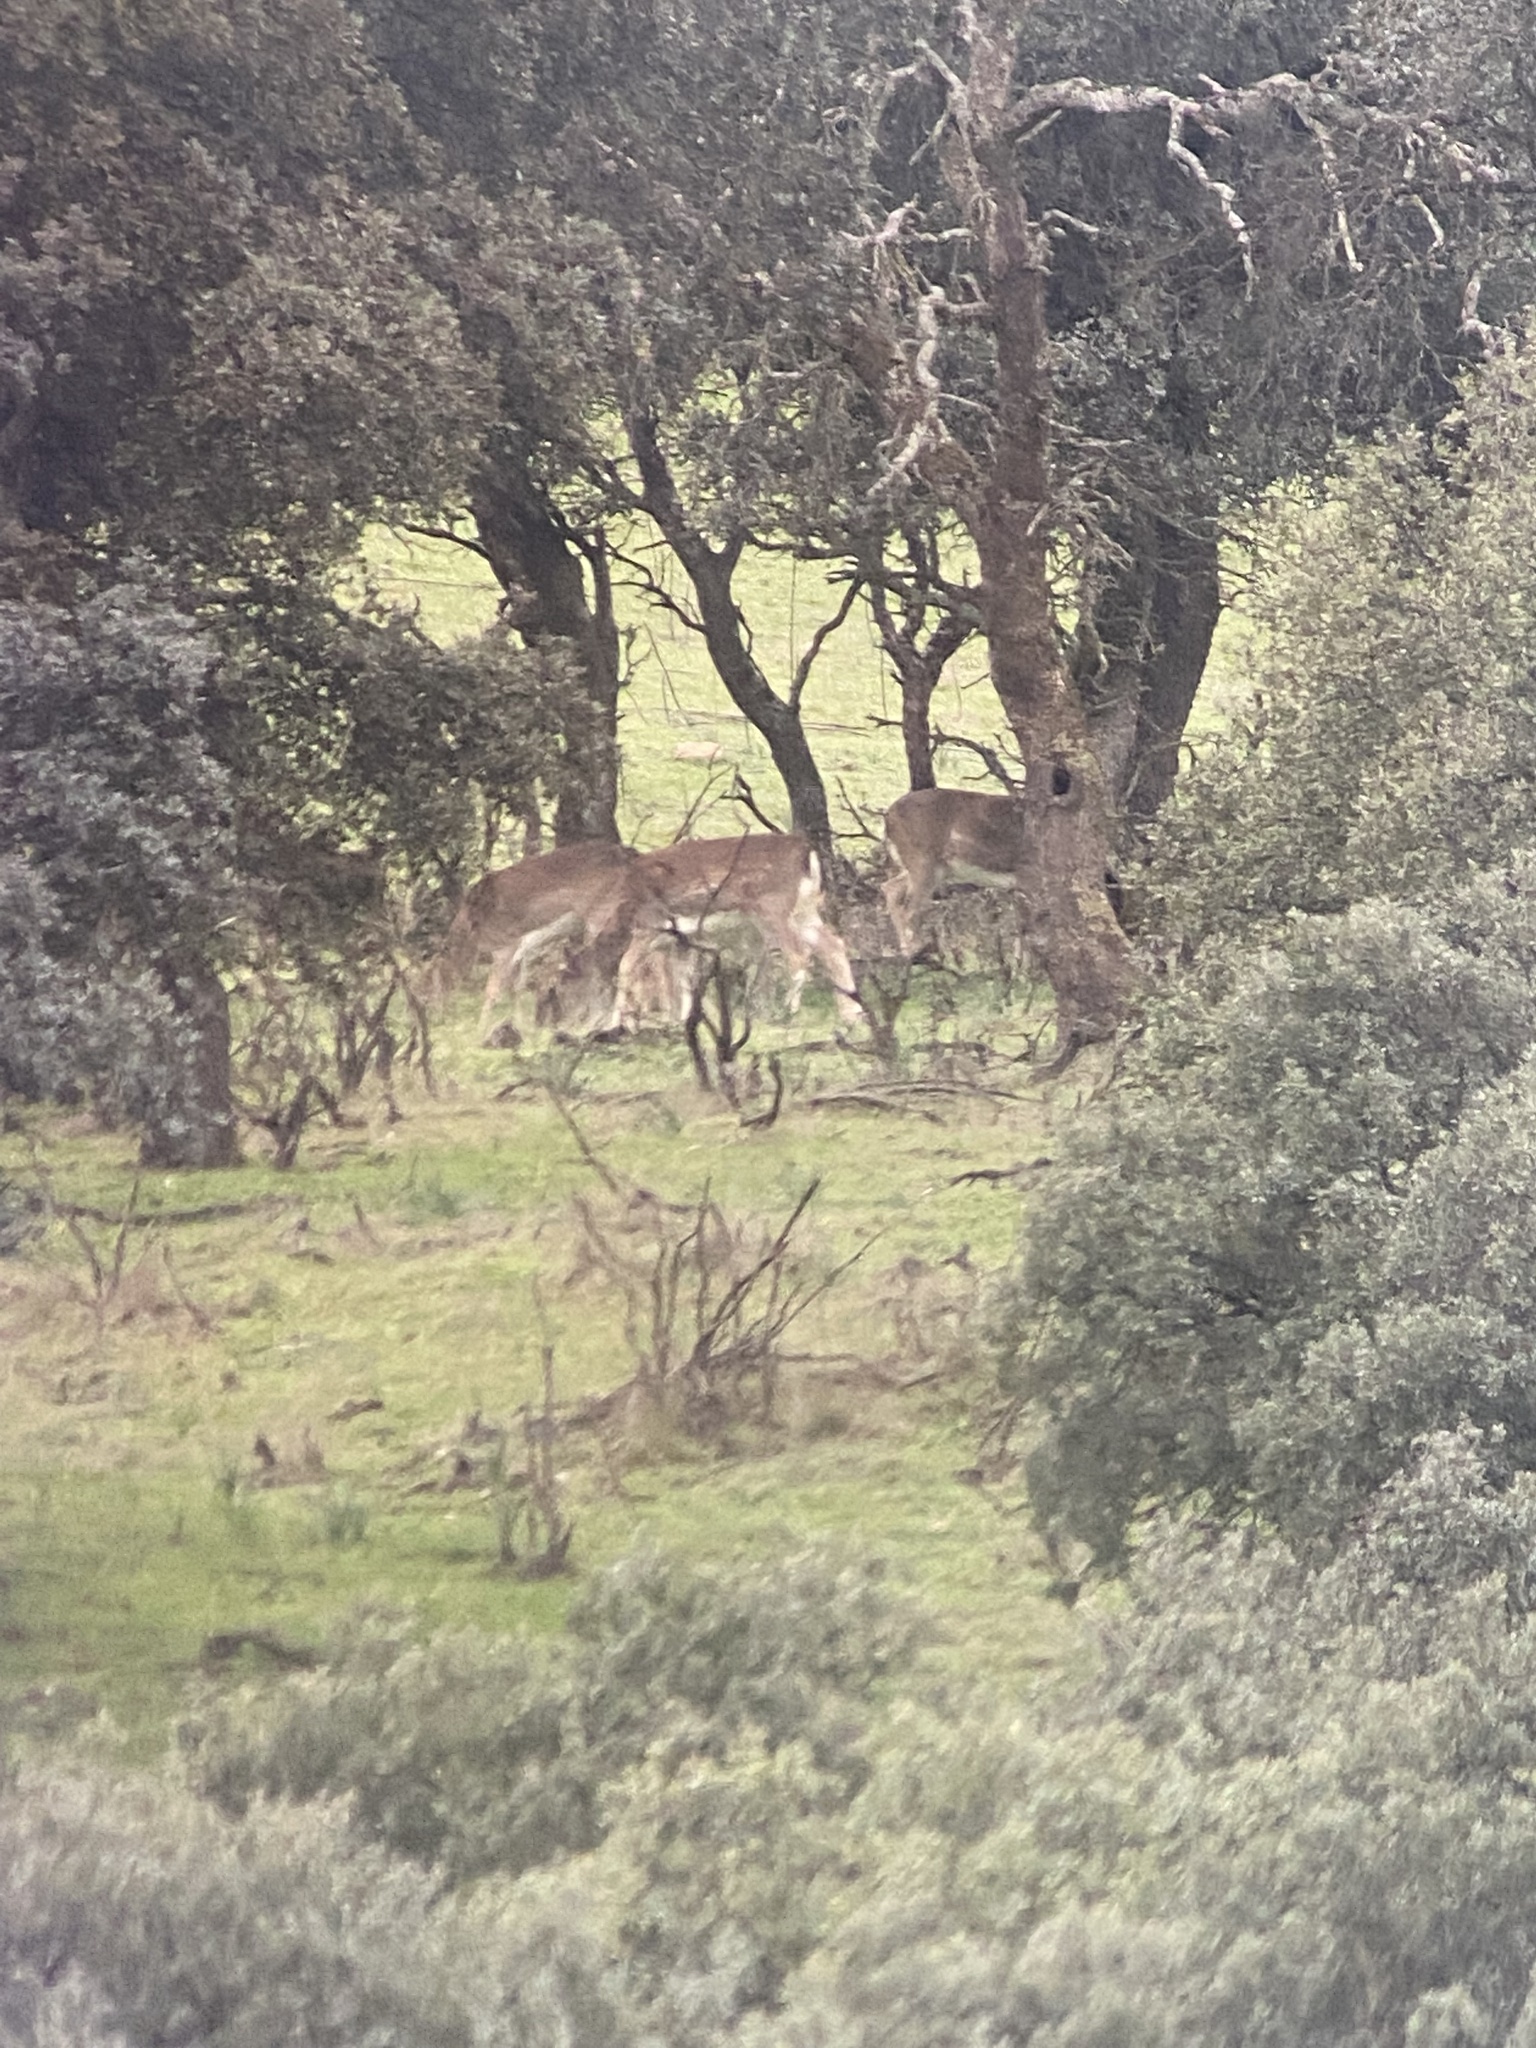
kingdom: Animalia
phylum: Chordata
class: Mammalia
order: Artiodactyla
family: Cervidae
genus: Dama
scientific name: Dama dama
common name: Fallow deer
